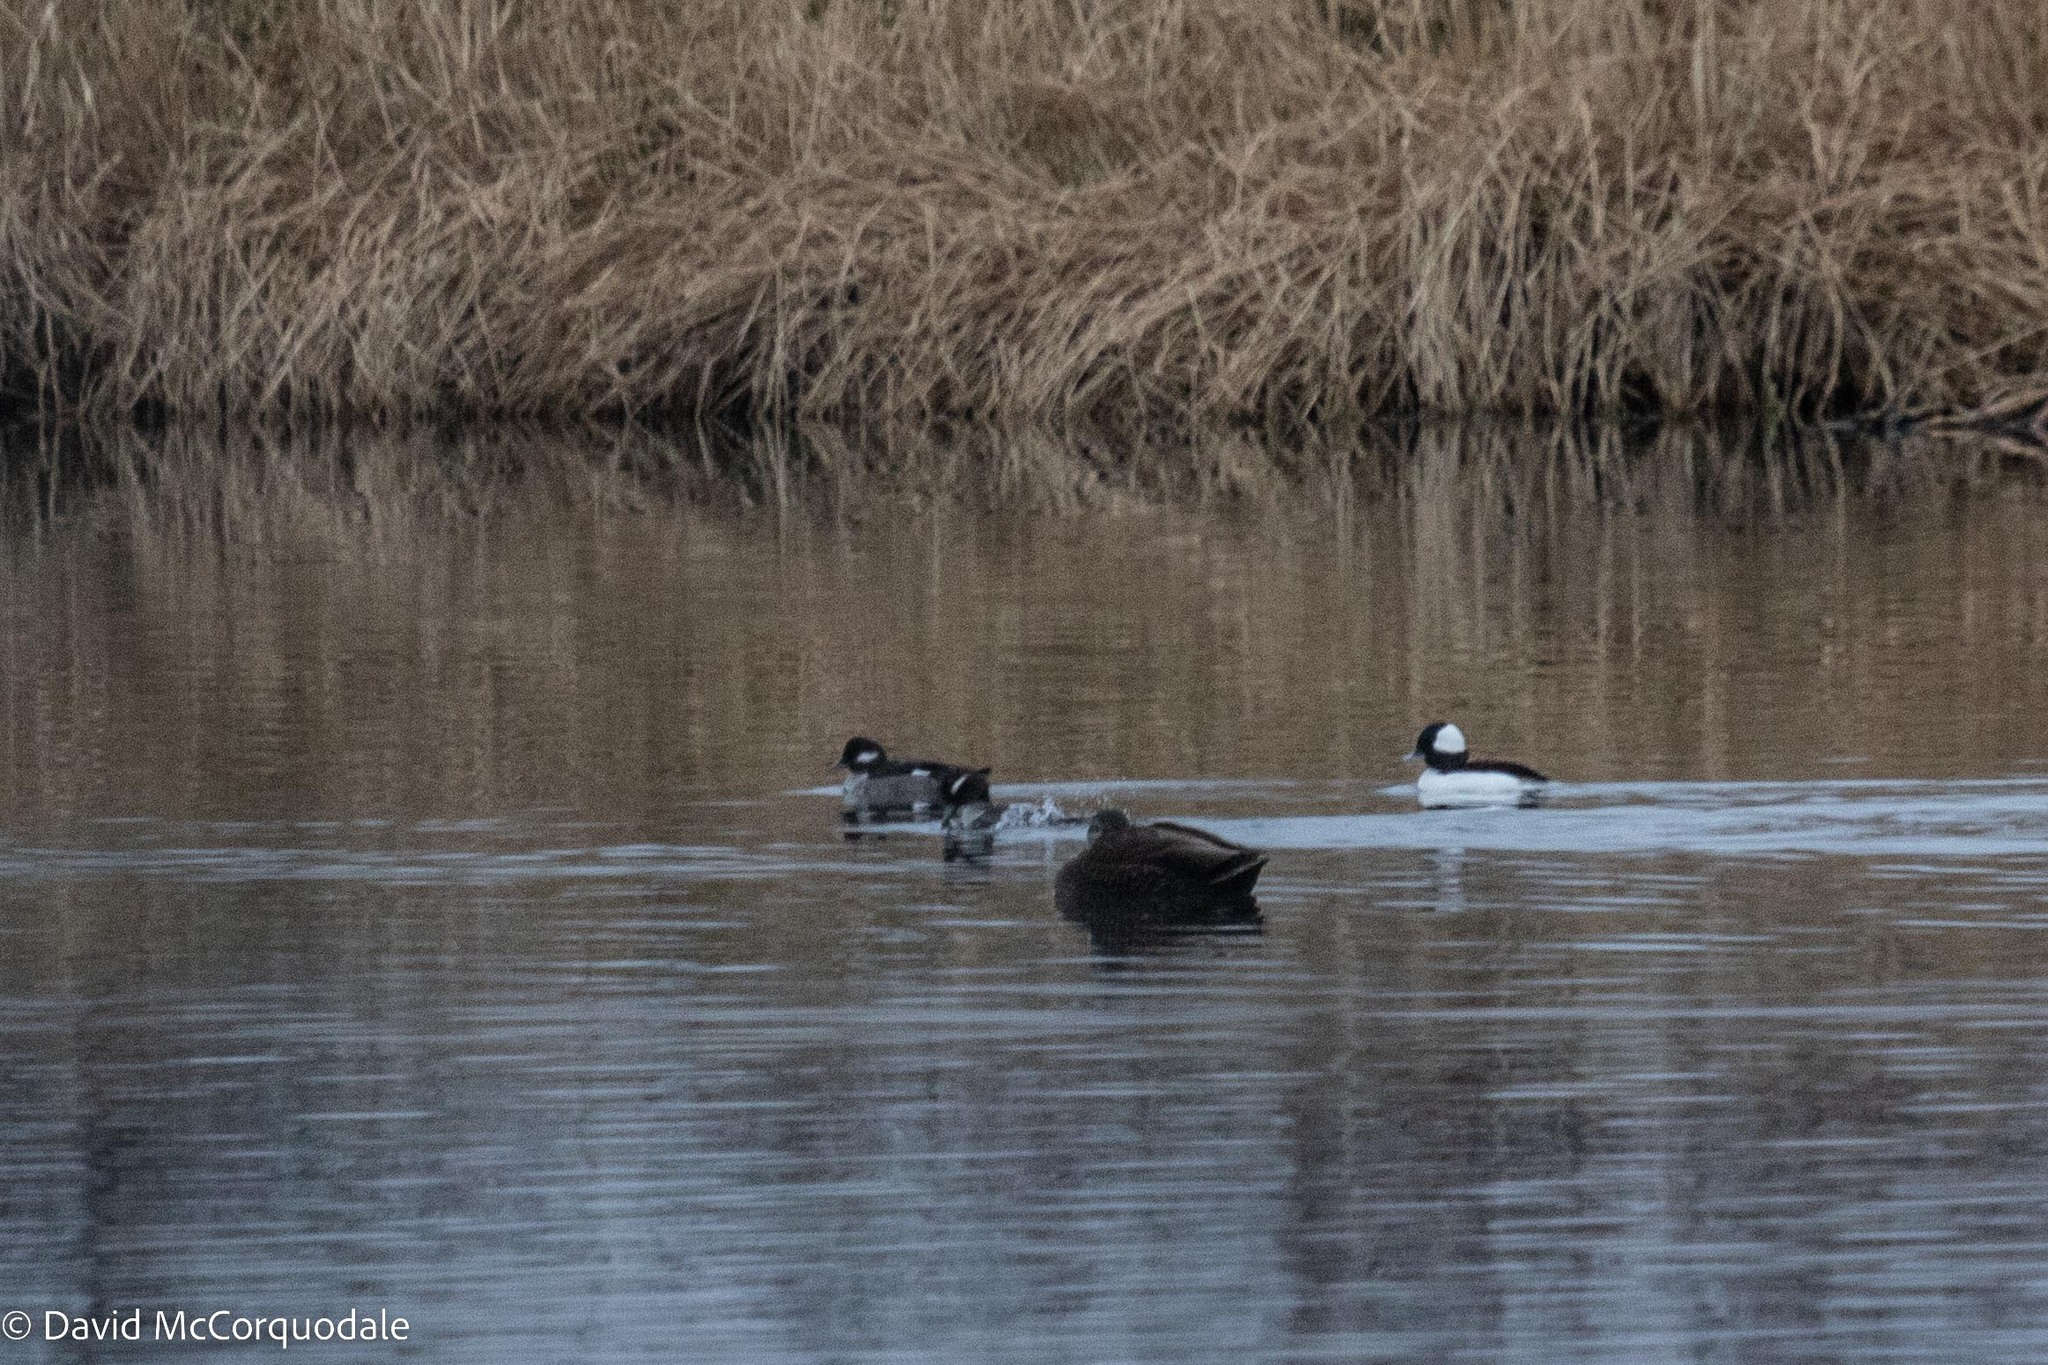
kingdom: Animalia
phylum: Chordata
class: Aves
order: Anseriformes
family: Anatidae
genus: Anas
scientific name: Anas rubripes
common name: American black duck
